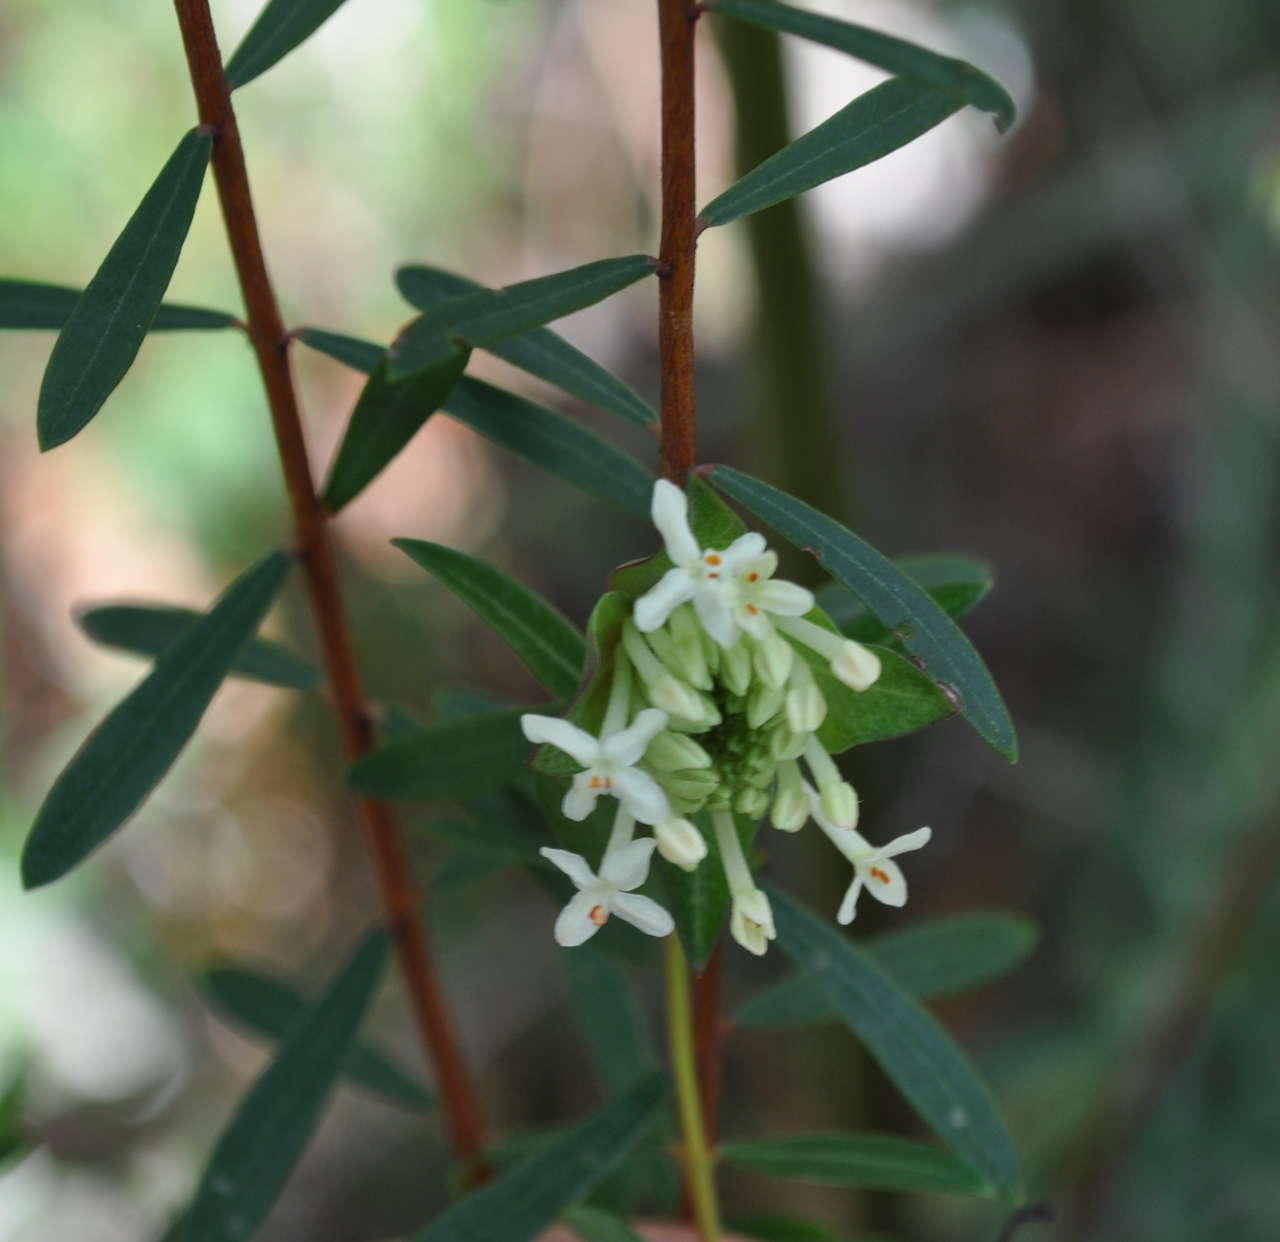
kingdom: Plantae
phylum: Tracheophyta
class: Magnoliopsida
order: Malvales
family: Thymelaeaceae
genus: Pimelea
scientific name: Pimelea linifolia
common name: Queen-of-the-bush
